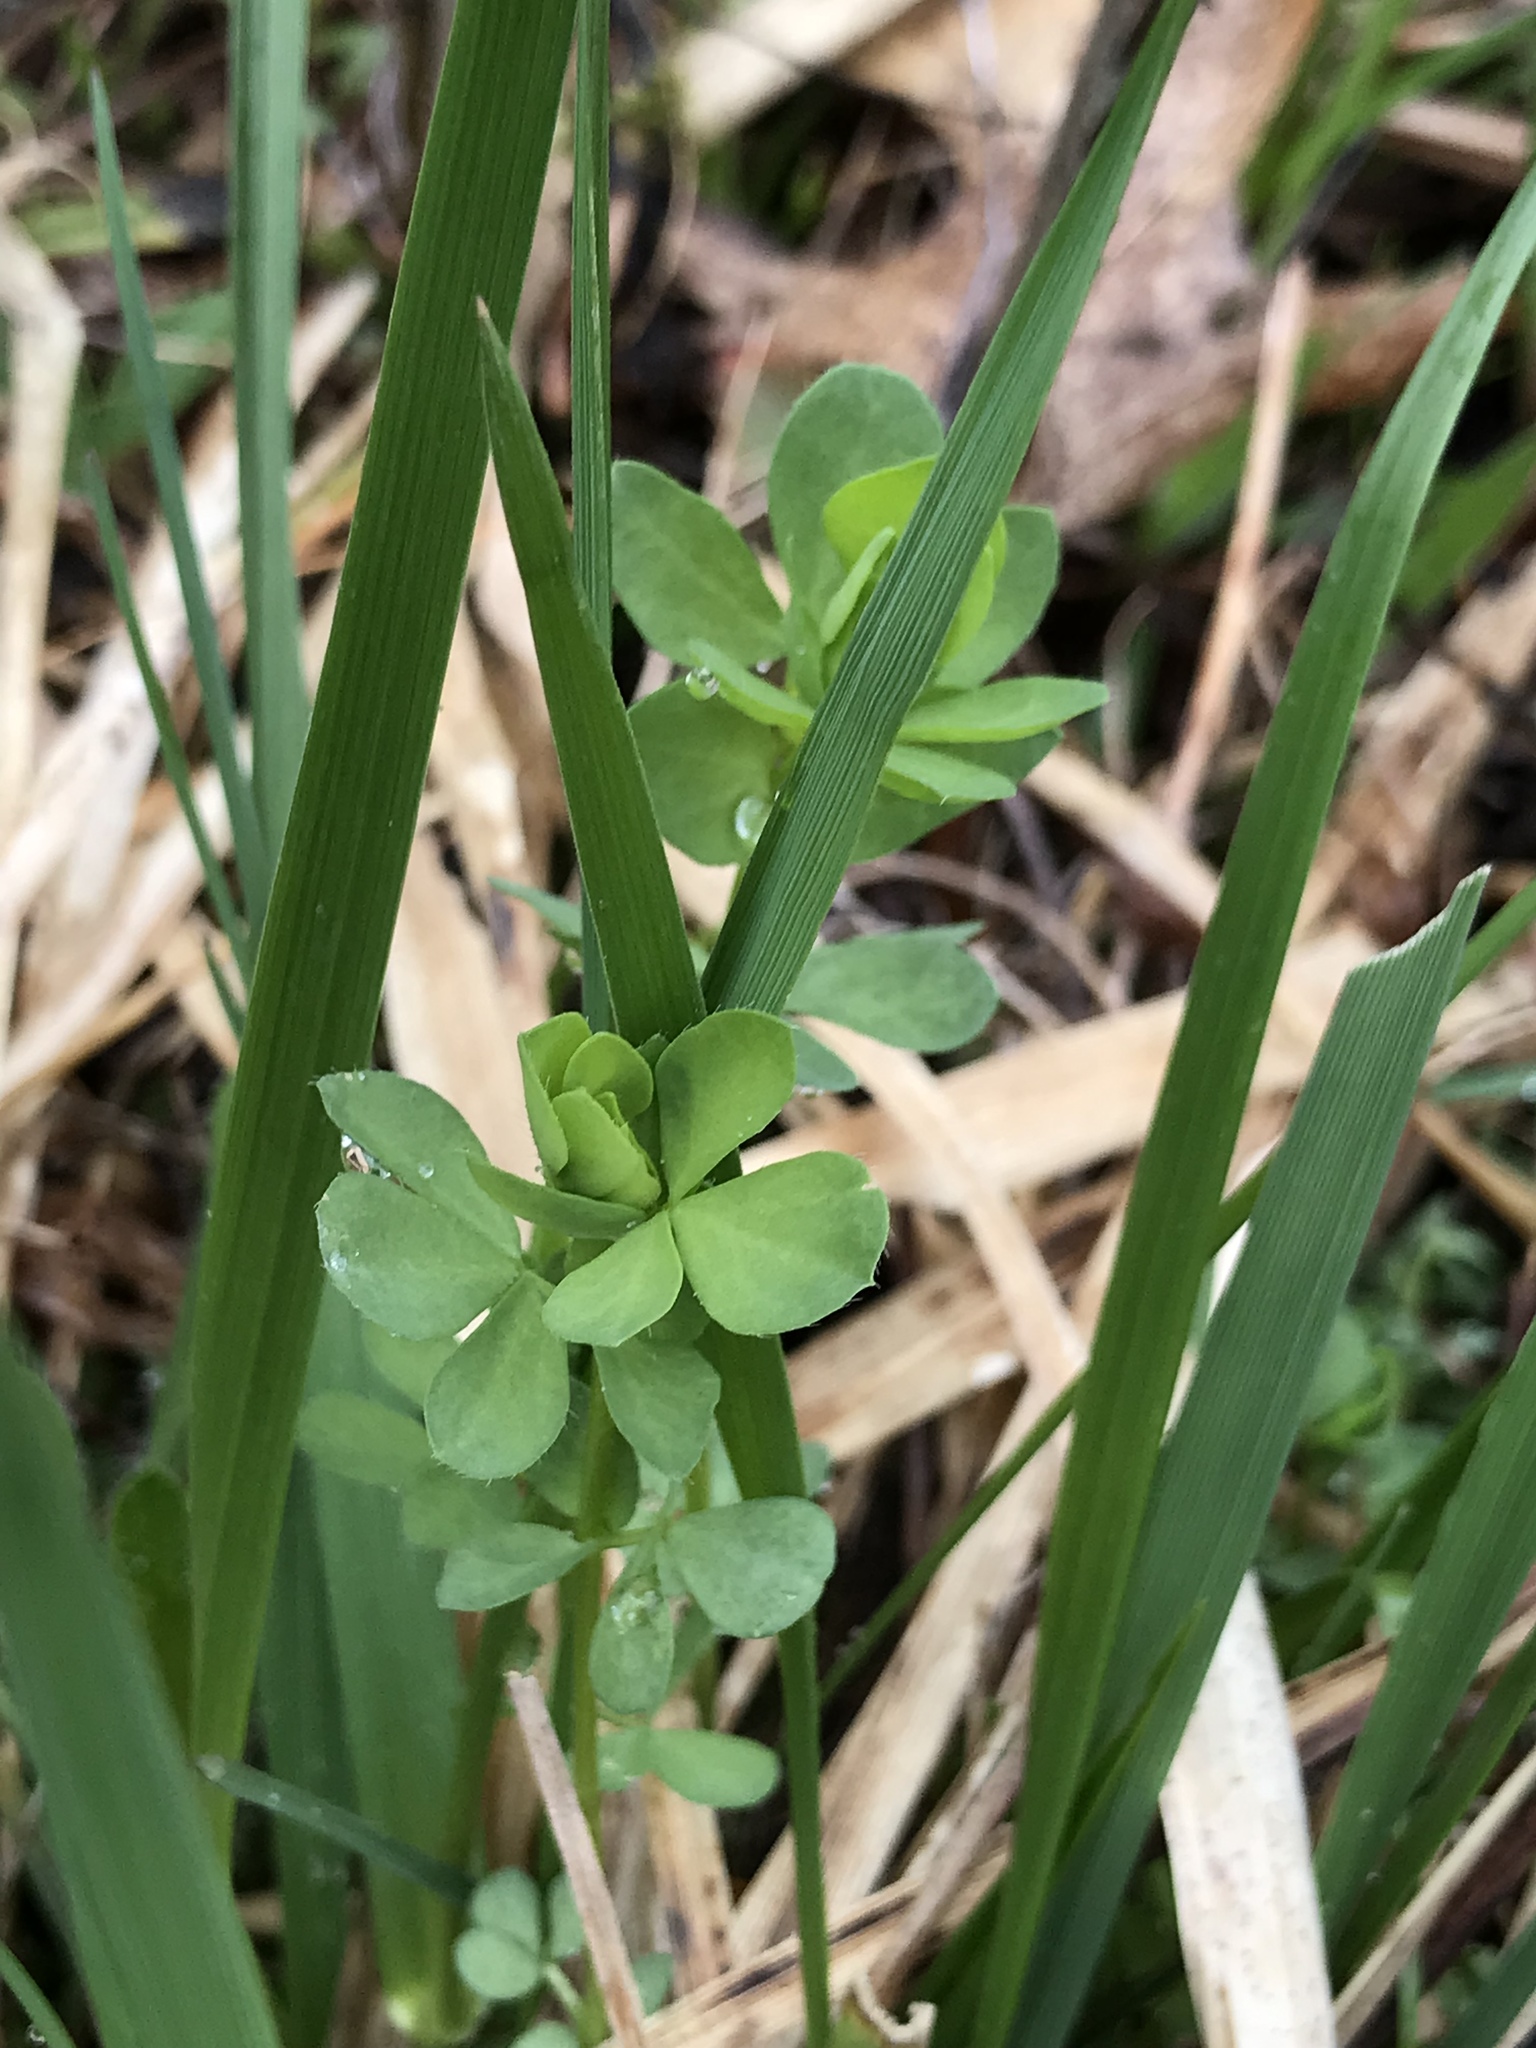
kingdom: Plantae
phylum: Tracheophyta
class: Magnoliopsida
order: Fabales
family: Fabaceae
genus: Lotus
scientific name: Lotus corniculatus
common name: Common bird's-foot-trefoil
